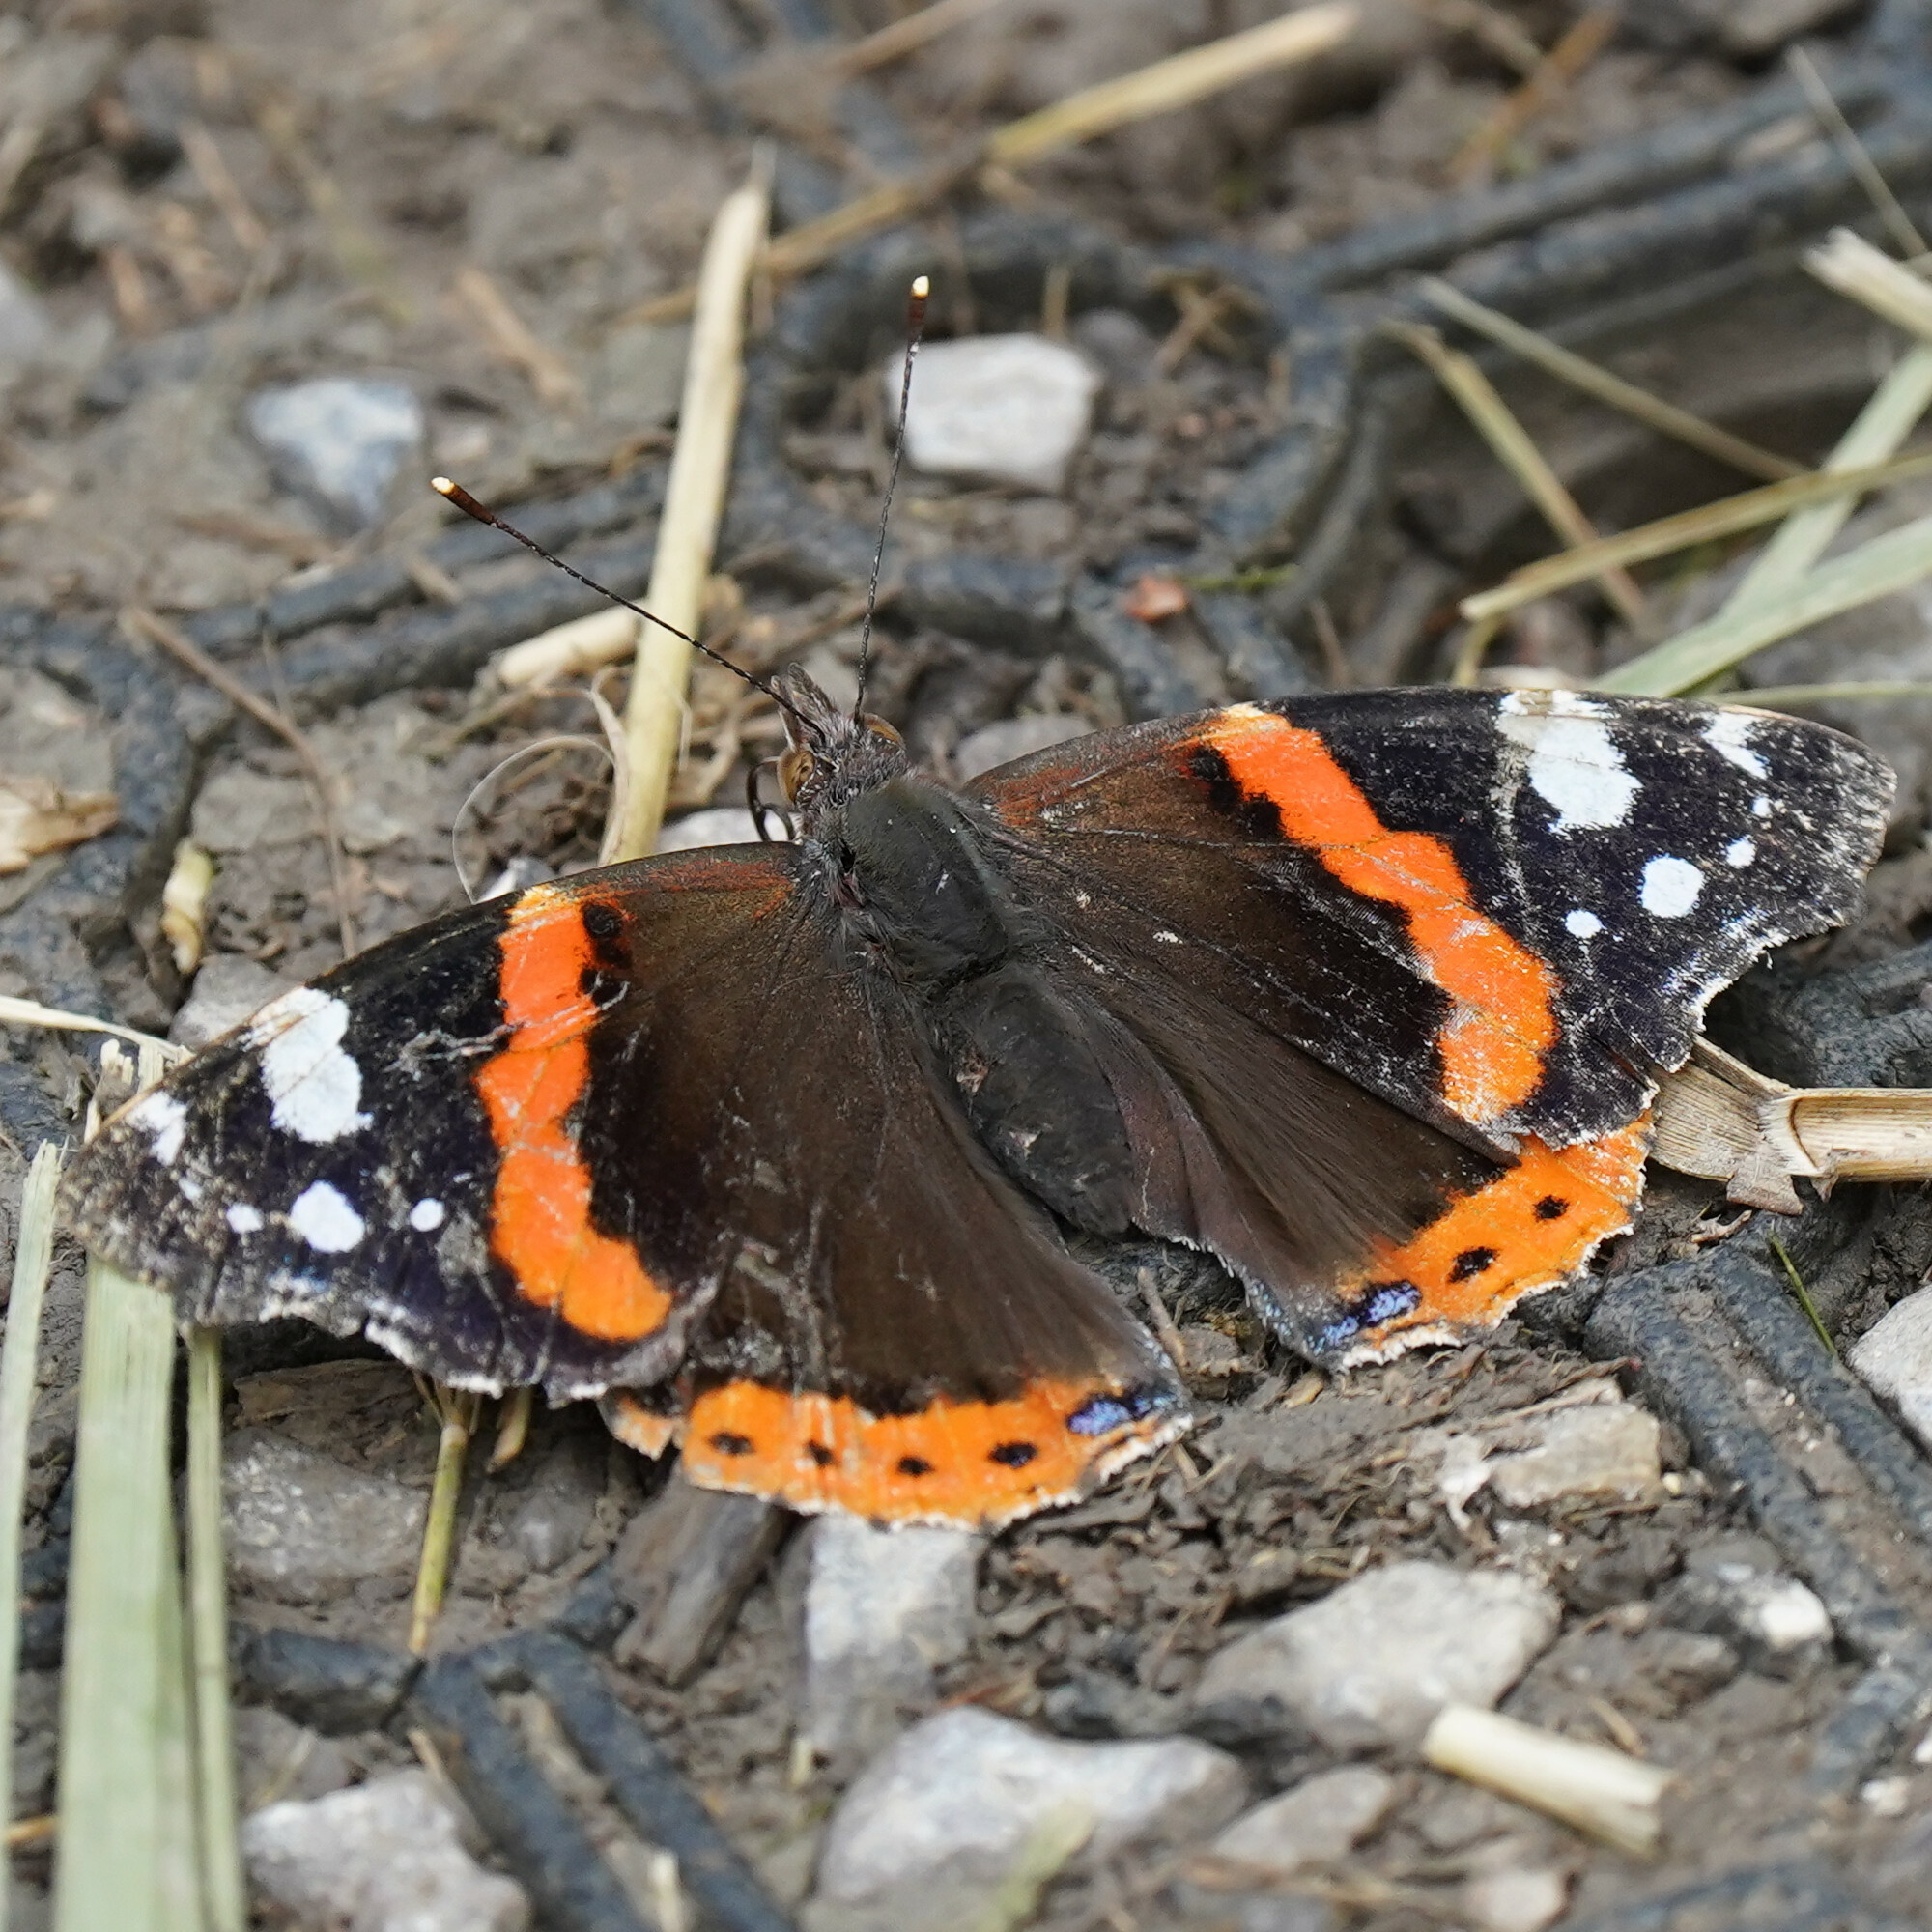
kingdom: Animalia
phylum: Arthropoda
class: Insecta
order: Lepidoptera
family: Nymphalidae
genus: Vanessa
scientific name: Vanessa atalanta
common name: Red admiral
